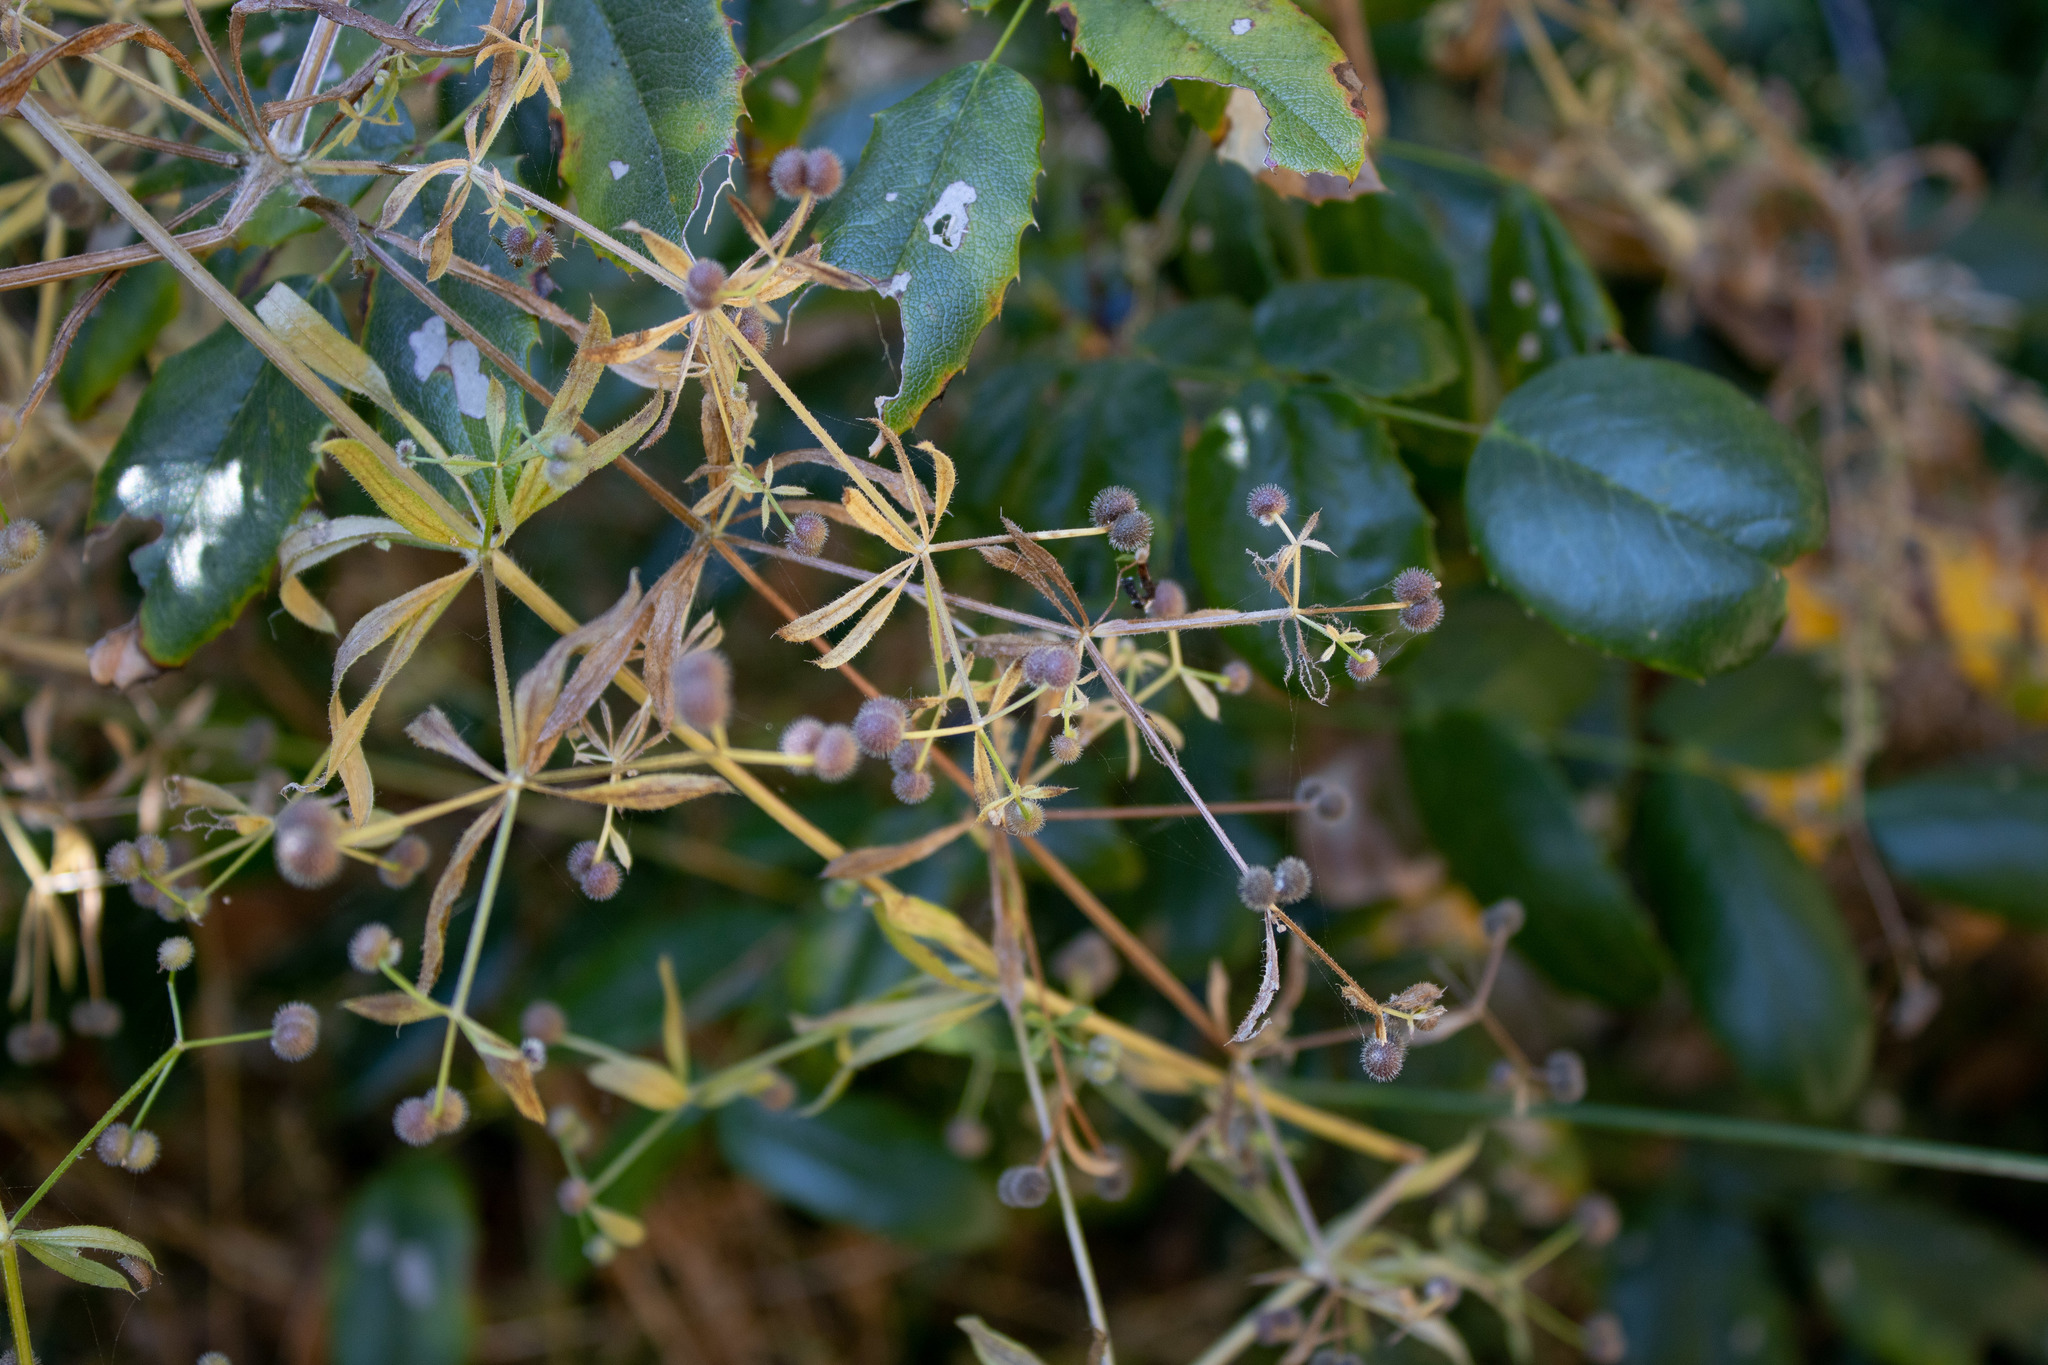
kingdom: Plantae
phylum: Tracheophyta
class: Magnoliopsida
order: Gentianales
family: Rubiaceae
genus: Galium
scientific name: Galium aparine
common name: Cleavers
